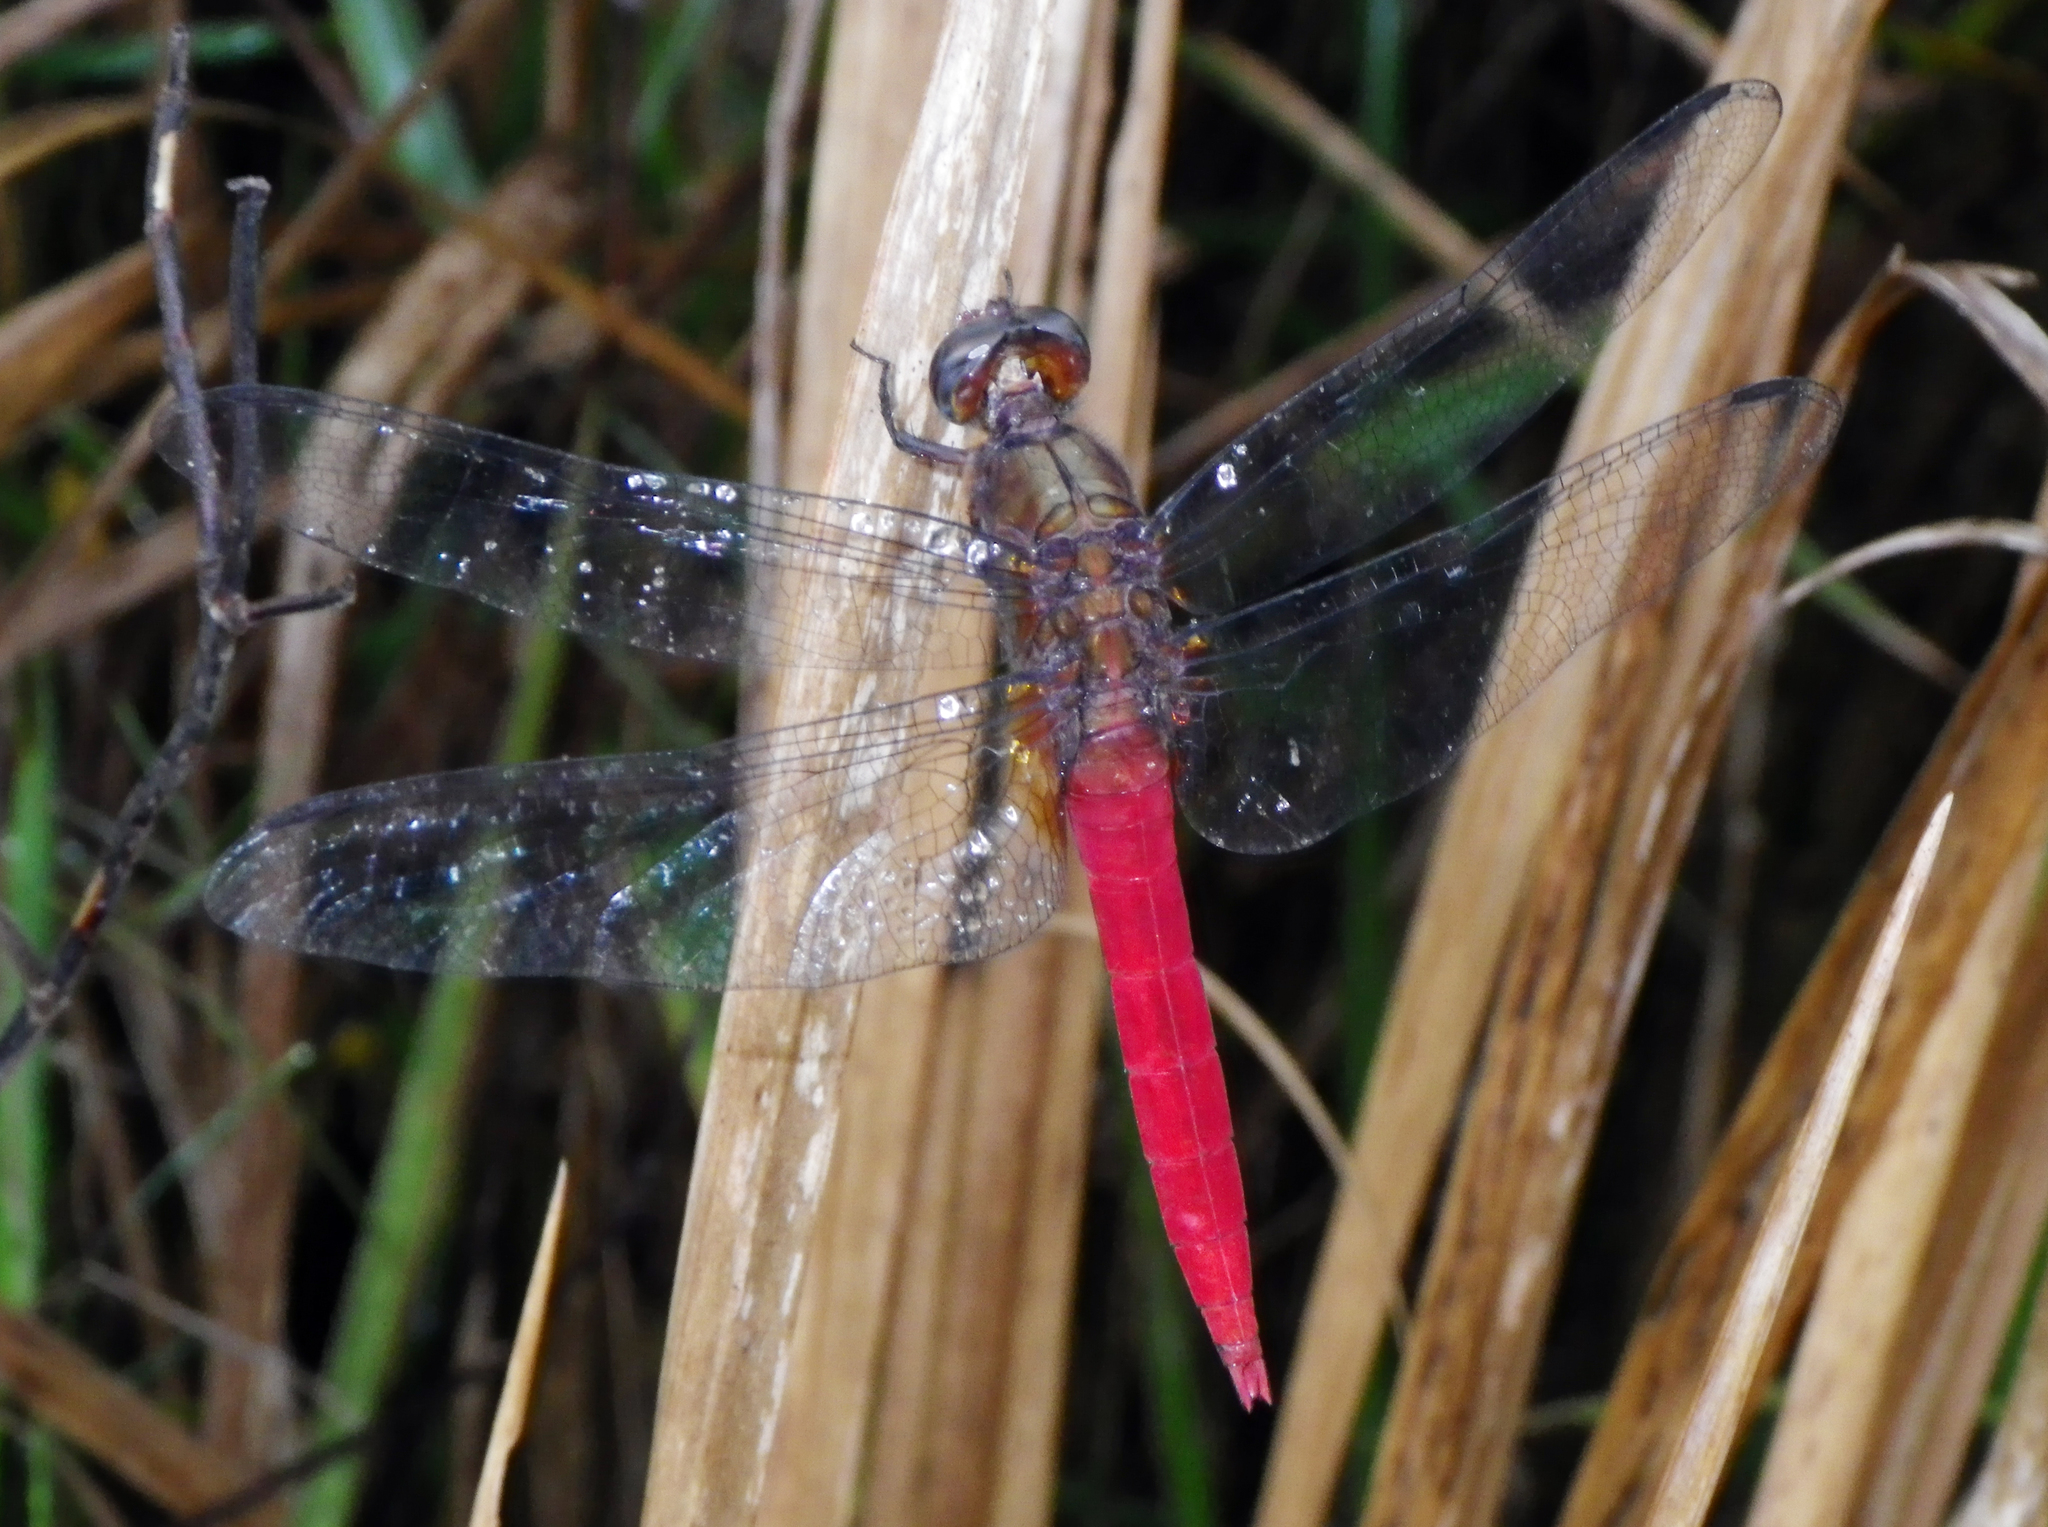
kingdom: Animalia
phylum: Arthropoda
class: Insecta
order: Odonata
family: Libellulidae
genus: Orthetrum
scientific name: Orthetrum chrysis
